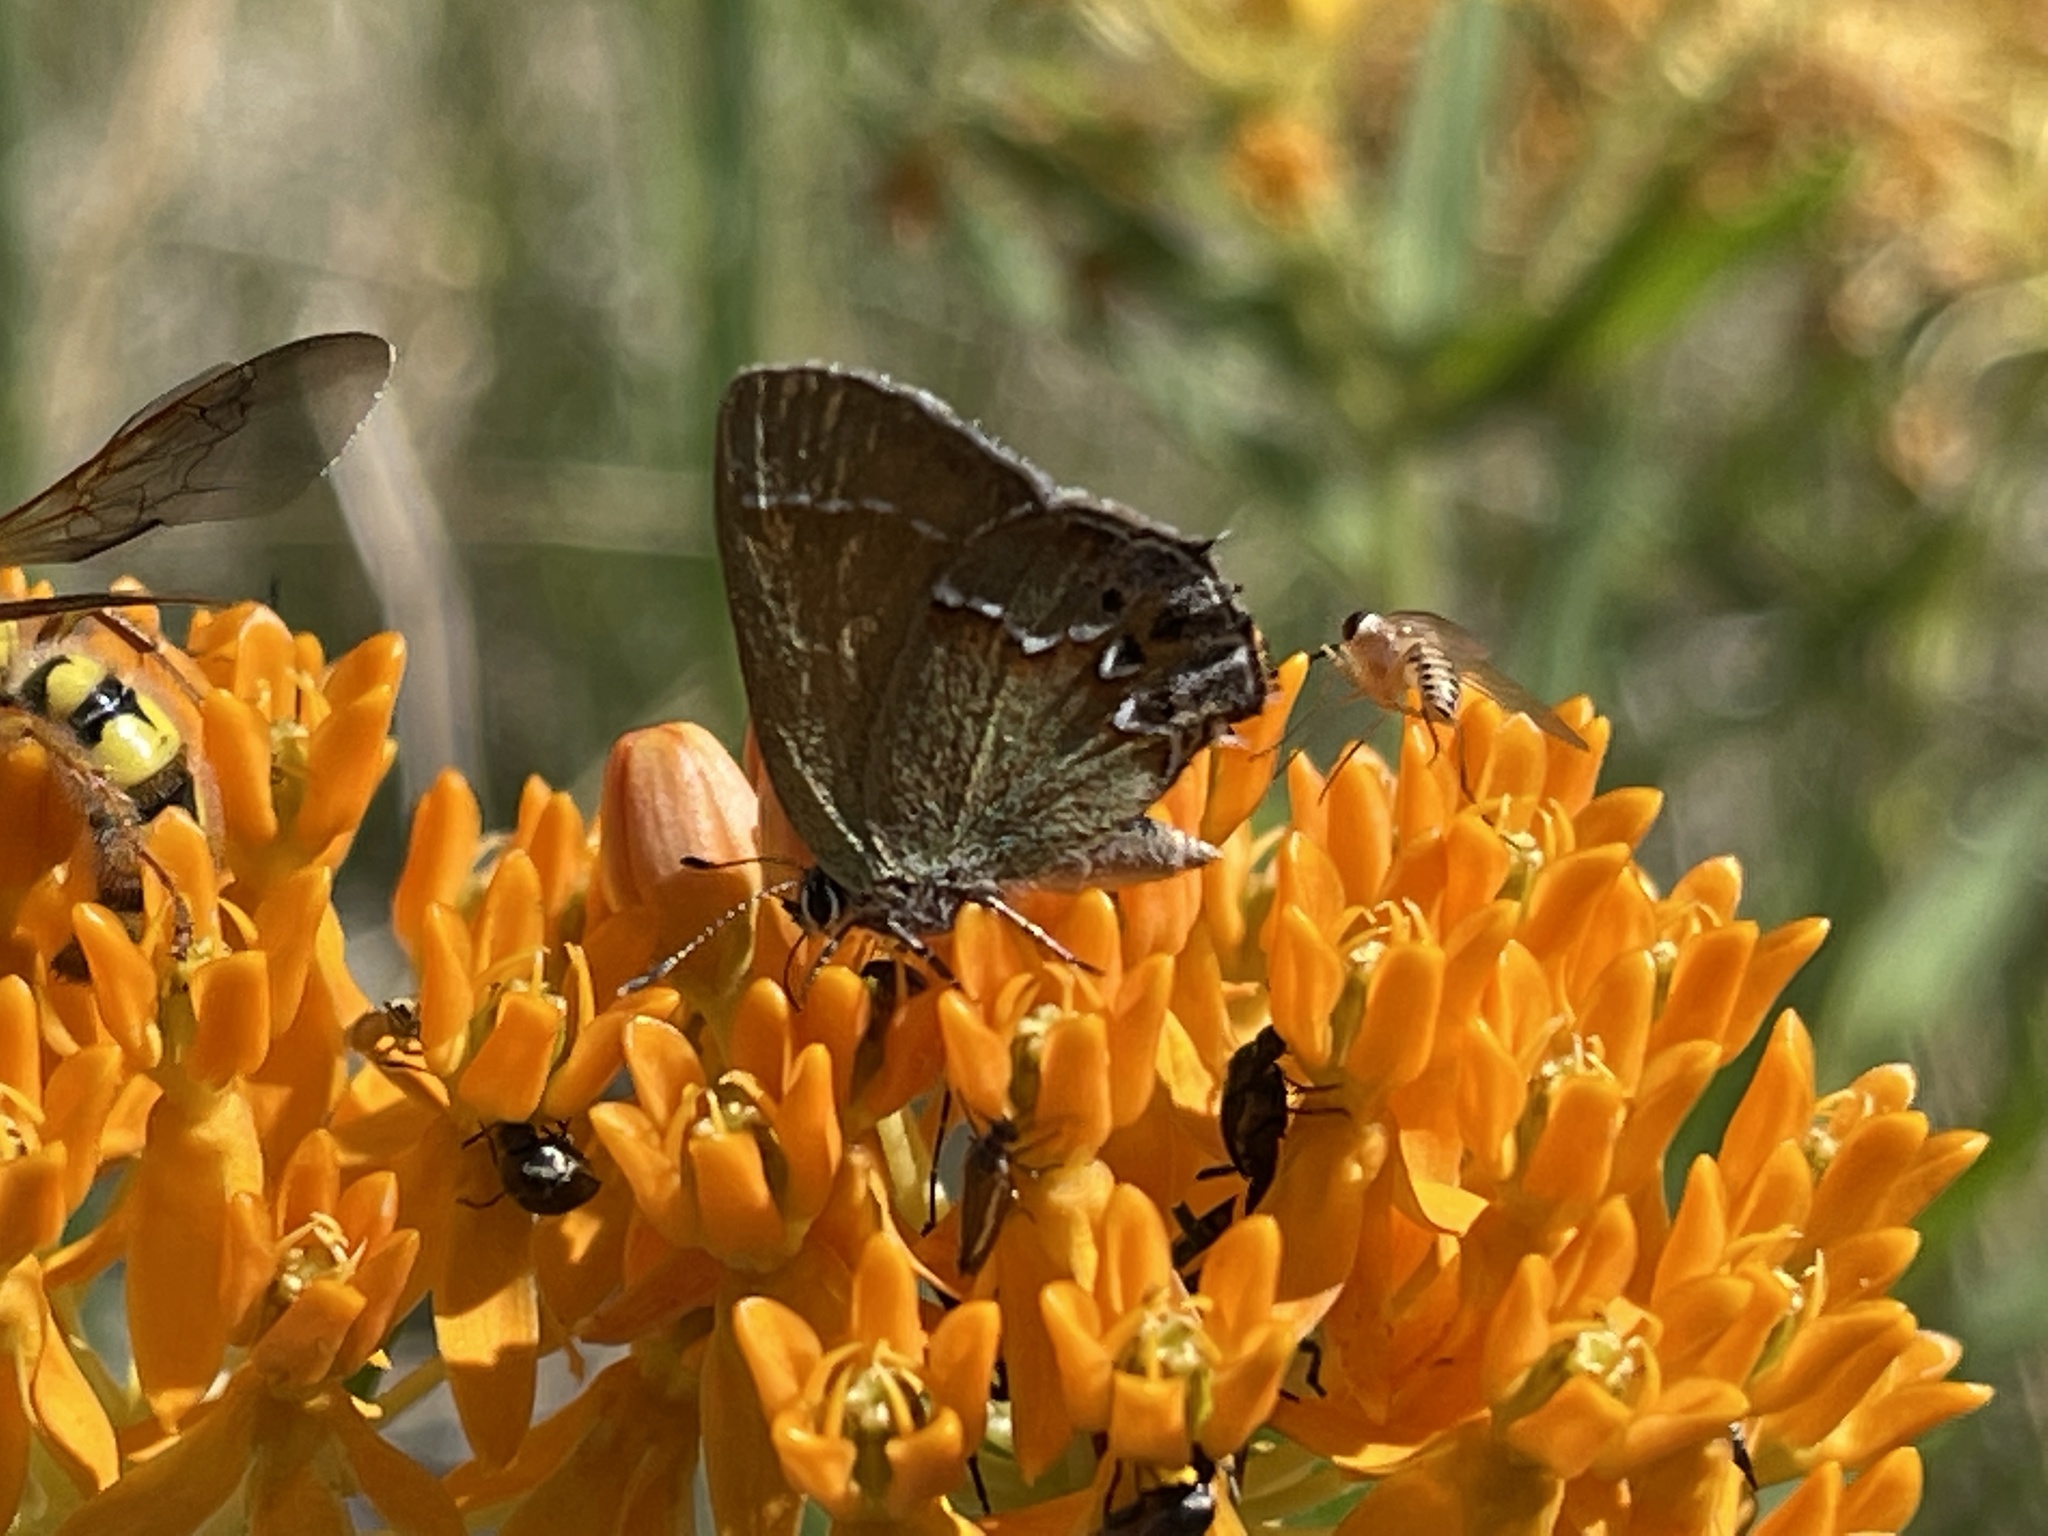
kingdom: Animalia
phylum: Arthropoda
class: Insecta
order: Lepidoptera
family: Lycaenidae
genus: Mitoura
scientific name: Mitoura siva
